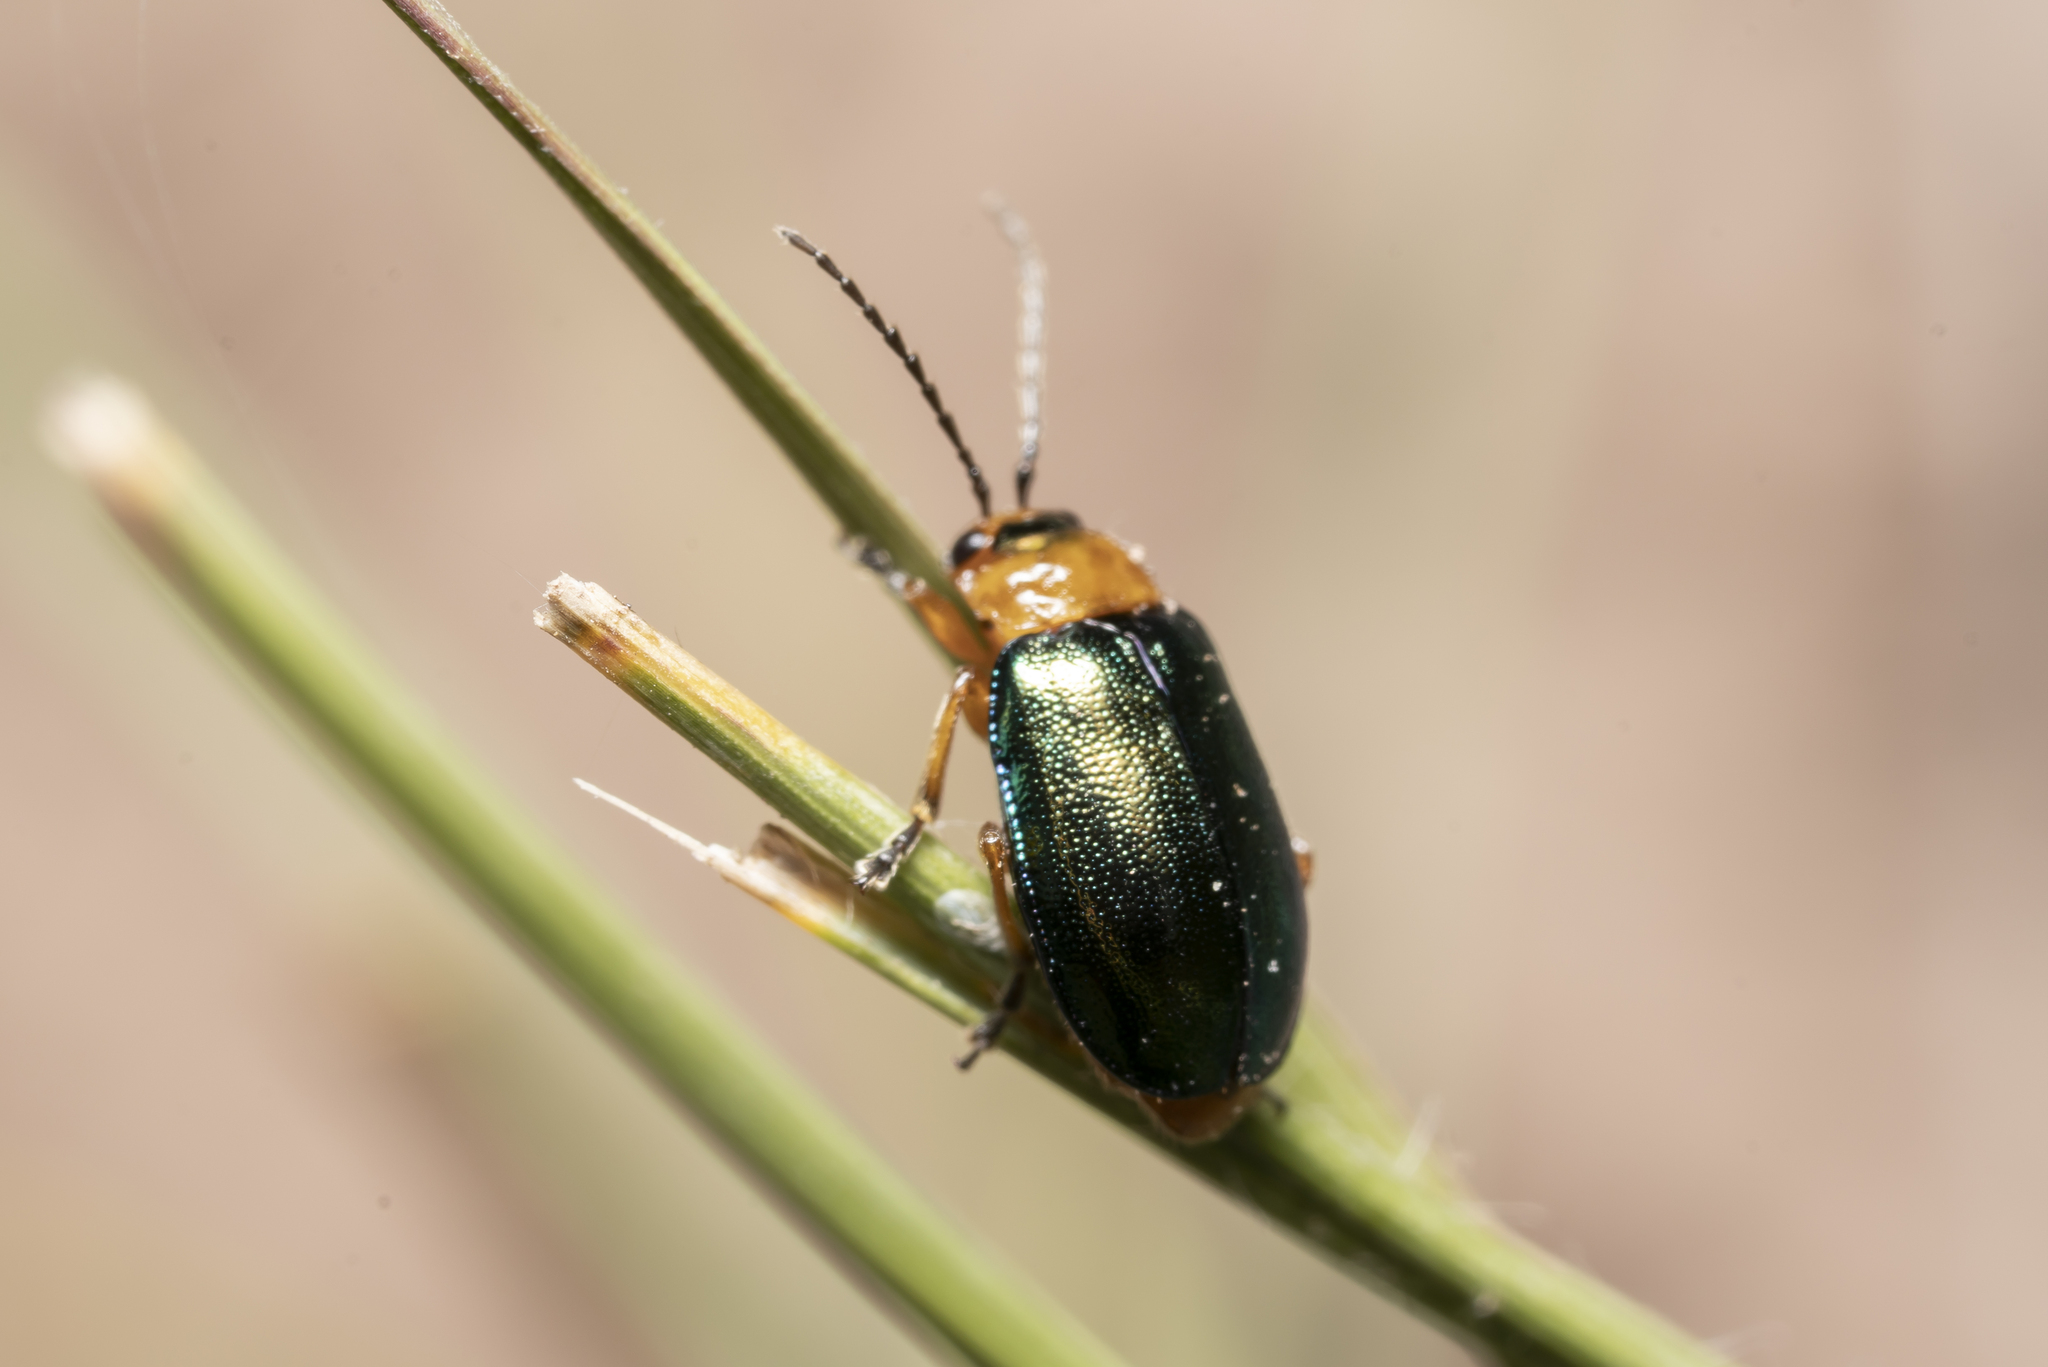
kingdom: Animalia
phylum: Arthropoda
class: Insecta
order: Coleoptera
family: Chrysomelidae
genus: Sermylassa
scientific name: Sermylassa halensis
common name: Leaf beetle
